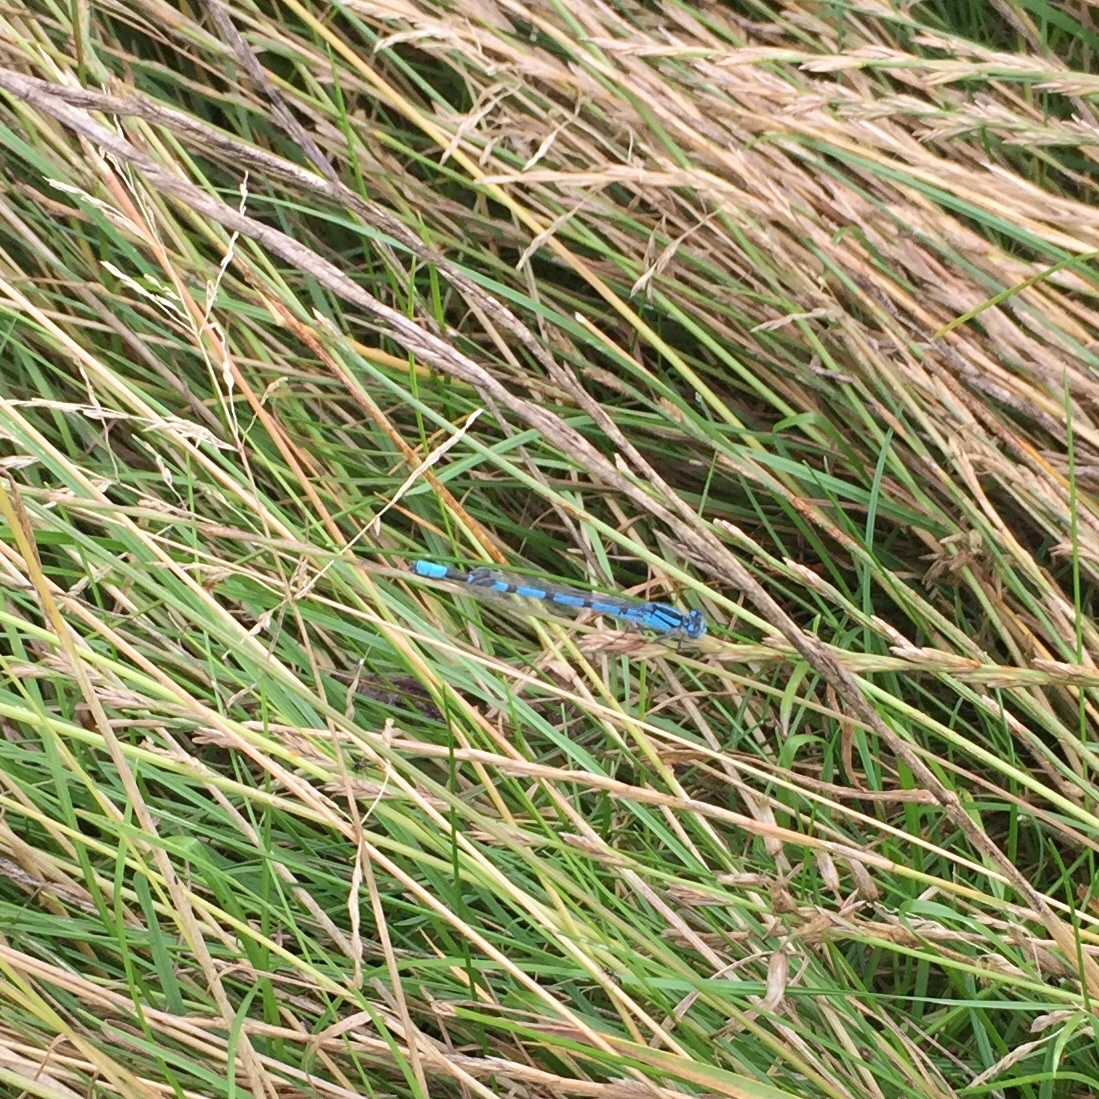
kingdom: Animalia
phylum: Arthropoda
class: Insecta
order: Odonata
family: Coenagrionidae
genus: Enallagma
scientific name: Enallagma cyathigerum
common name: Common blue damselfly
